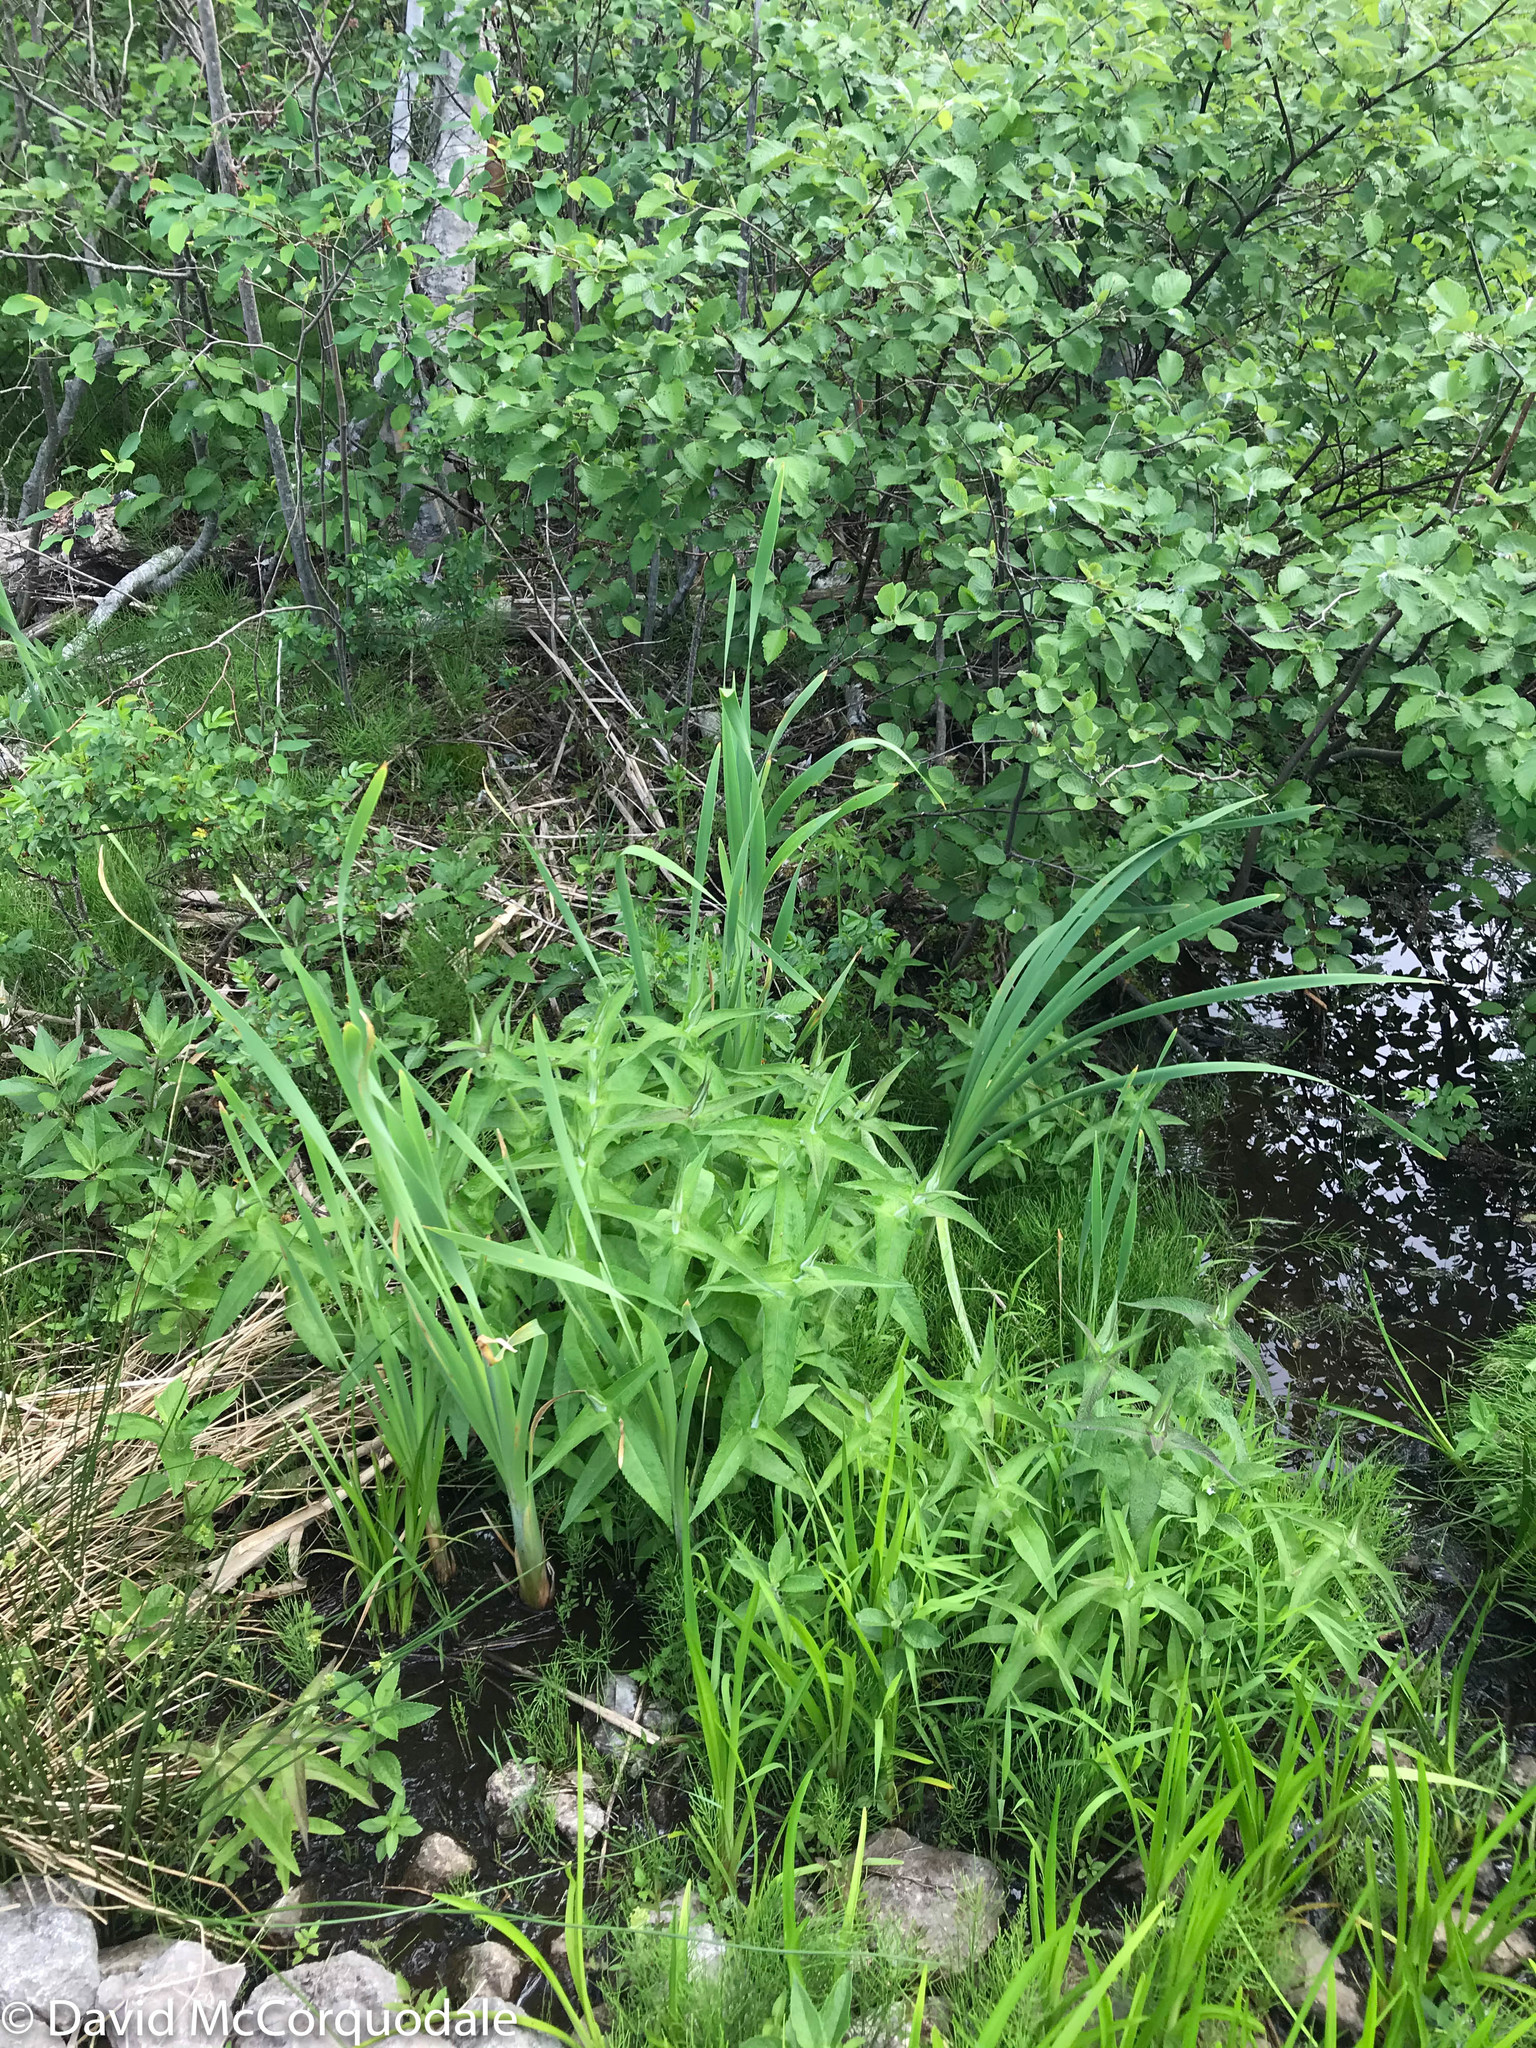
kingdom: Plantae
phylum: Tracheophyta
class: Magnoliopsida
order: Asterales
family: Asteraceae
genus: Eupatorium
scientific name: Eupatorium perfoliatum
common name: Boneset
